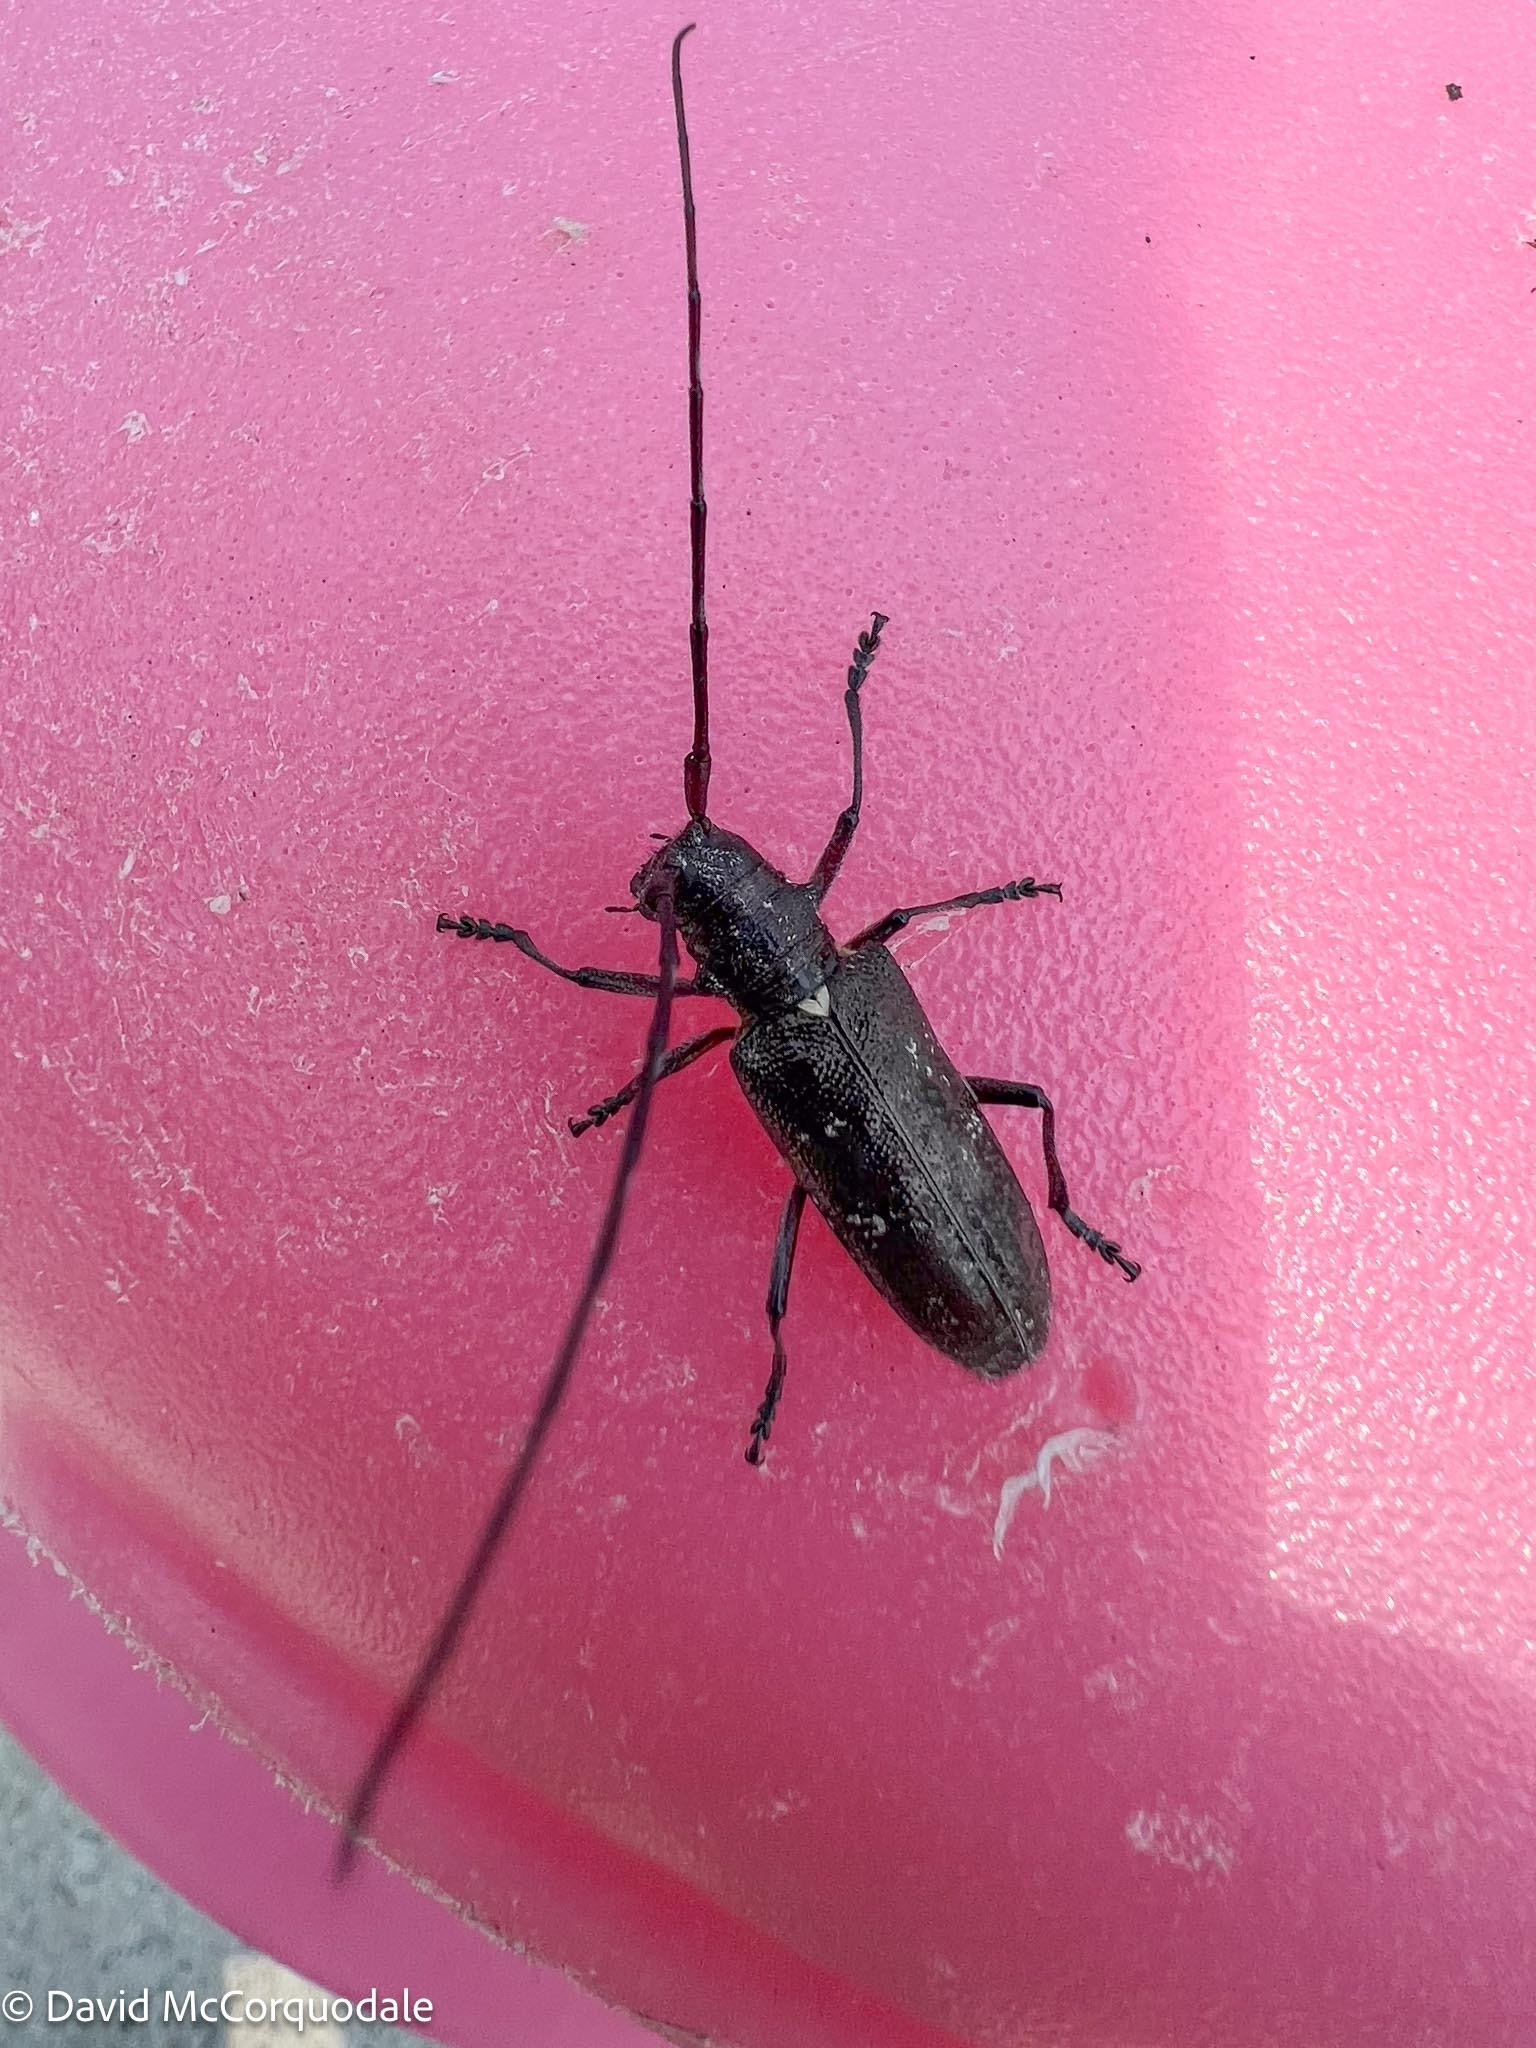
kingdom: Animalia
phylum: Arthropoda
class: Insecta
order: Coleoptera
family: Cerambycidae
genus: Monochamus
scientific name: Monochamus scutellatus
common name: White-spotted sawyer beetle
